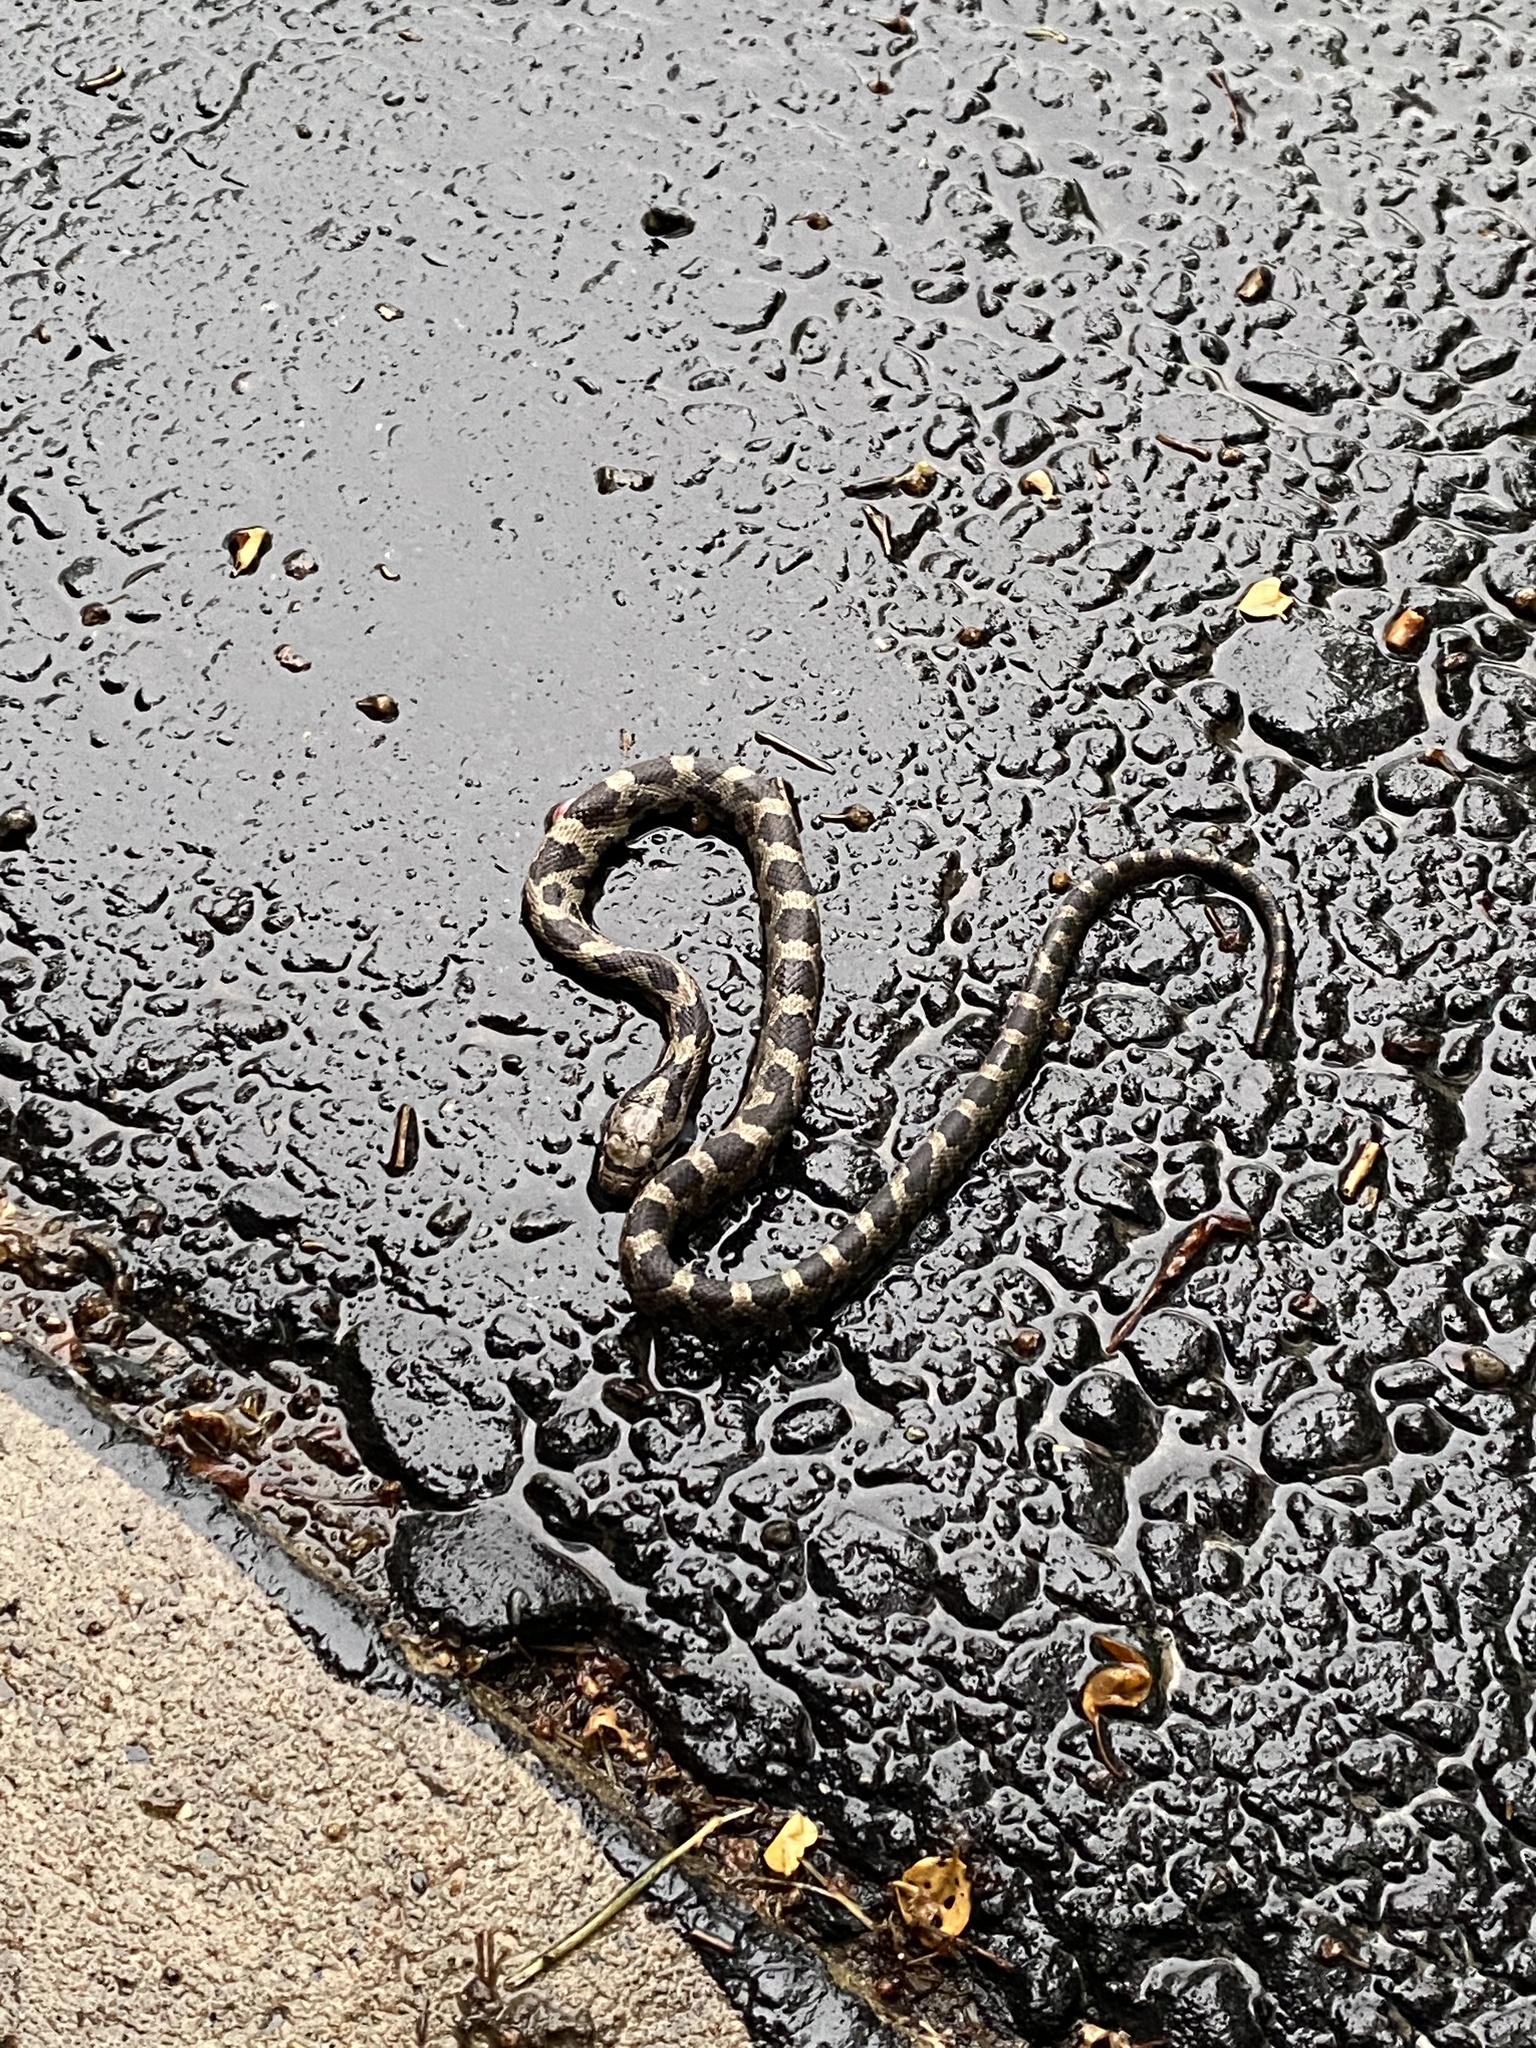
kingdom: Animalia
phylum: Chordata
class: Squamata
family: Colubridae
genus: Pantherophis
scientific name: Pantherophis spiloides
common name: Gray rat snake
